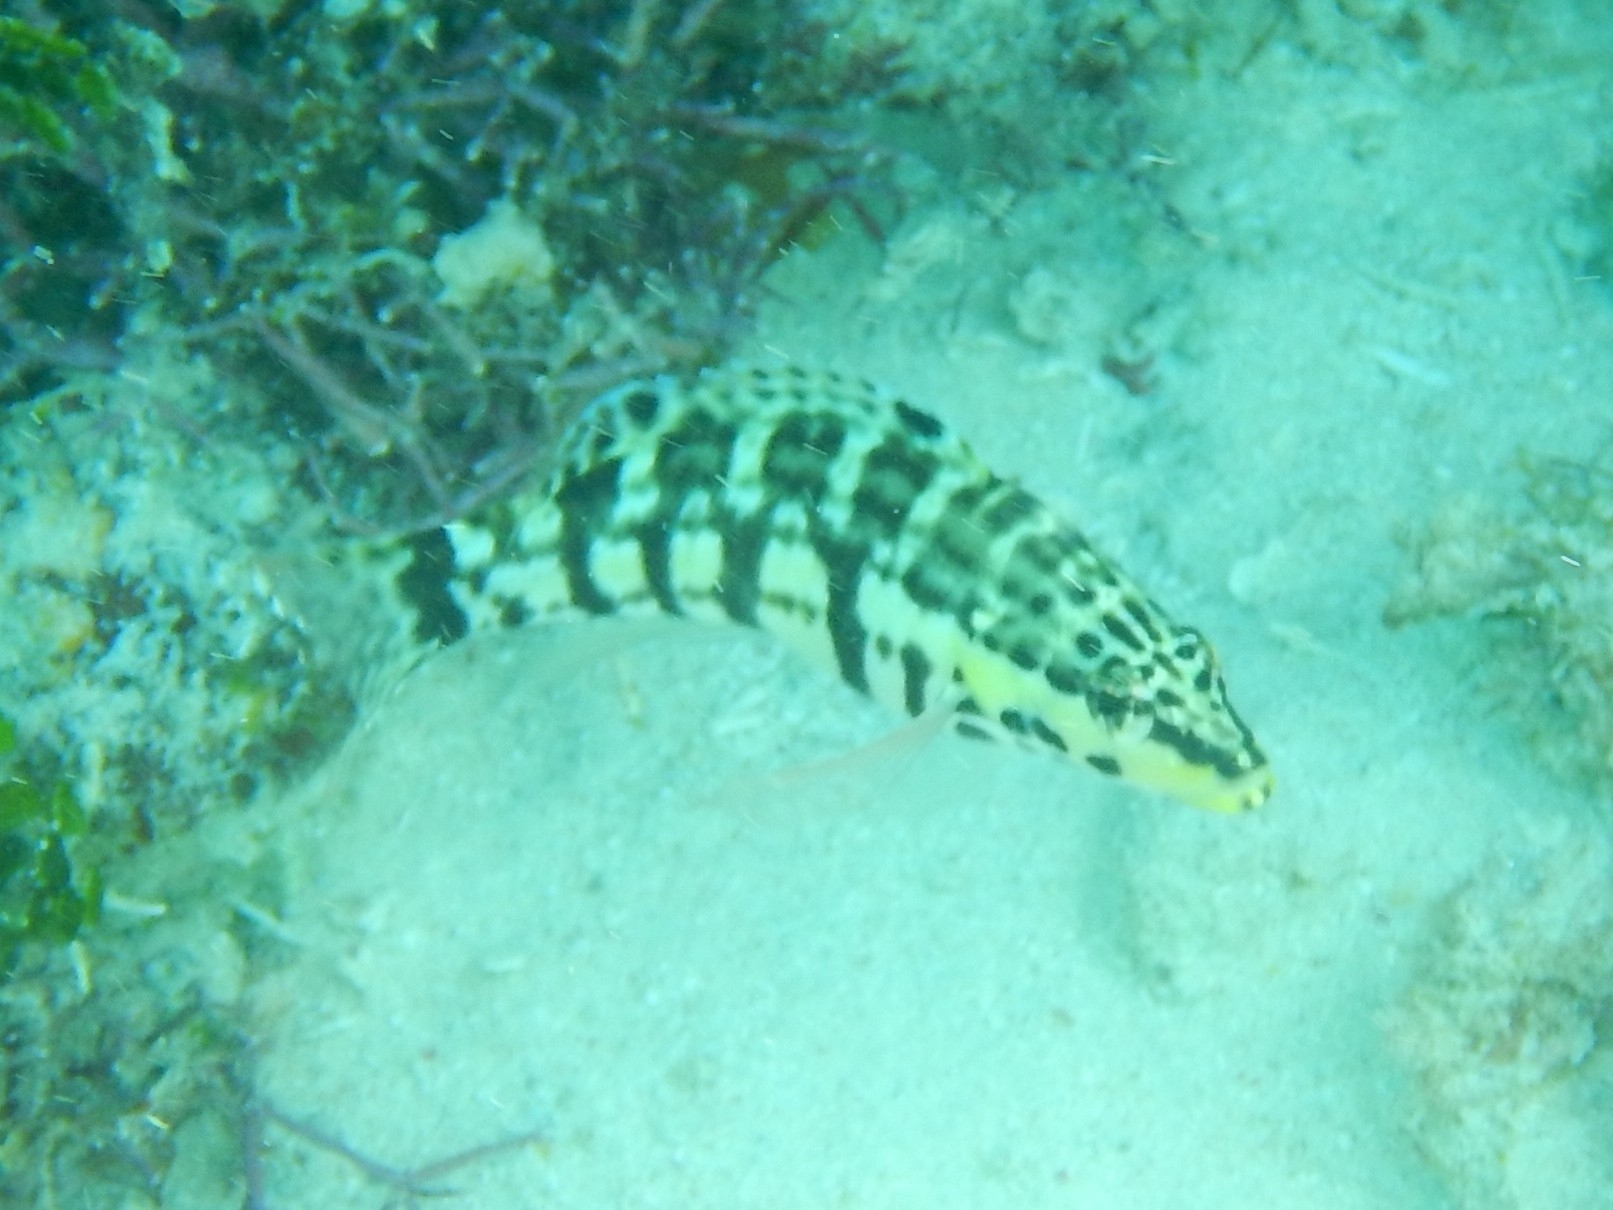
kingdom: Animalia
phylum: Chordata
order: Perciformes
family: Serranidae
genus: Serranus
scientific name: Serranus tigrinus
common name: Harlequin bass
